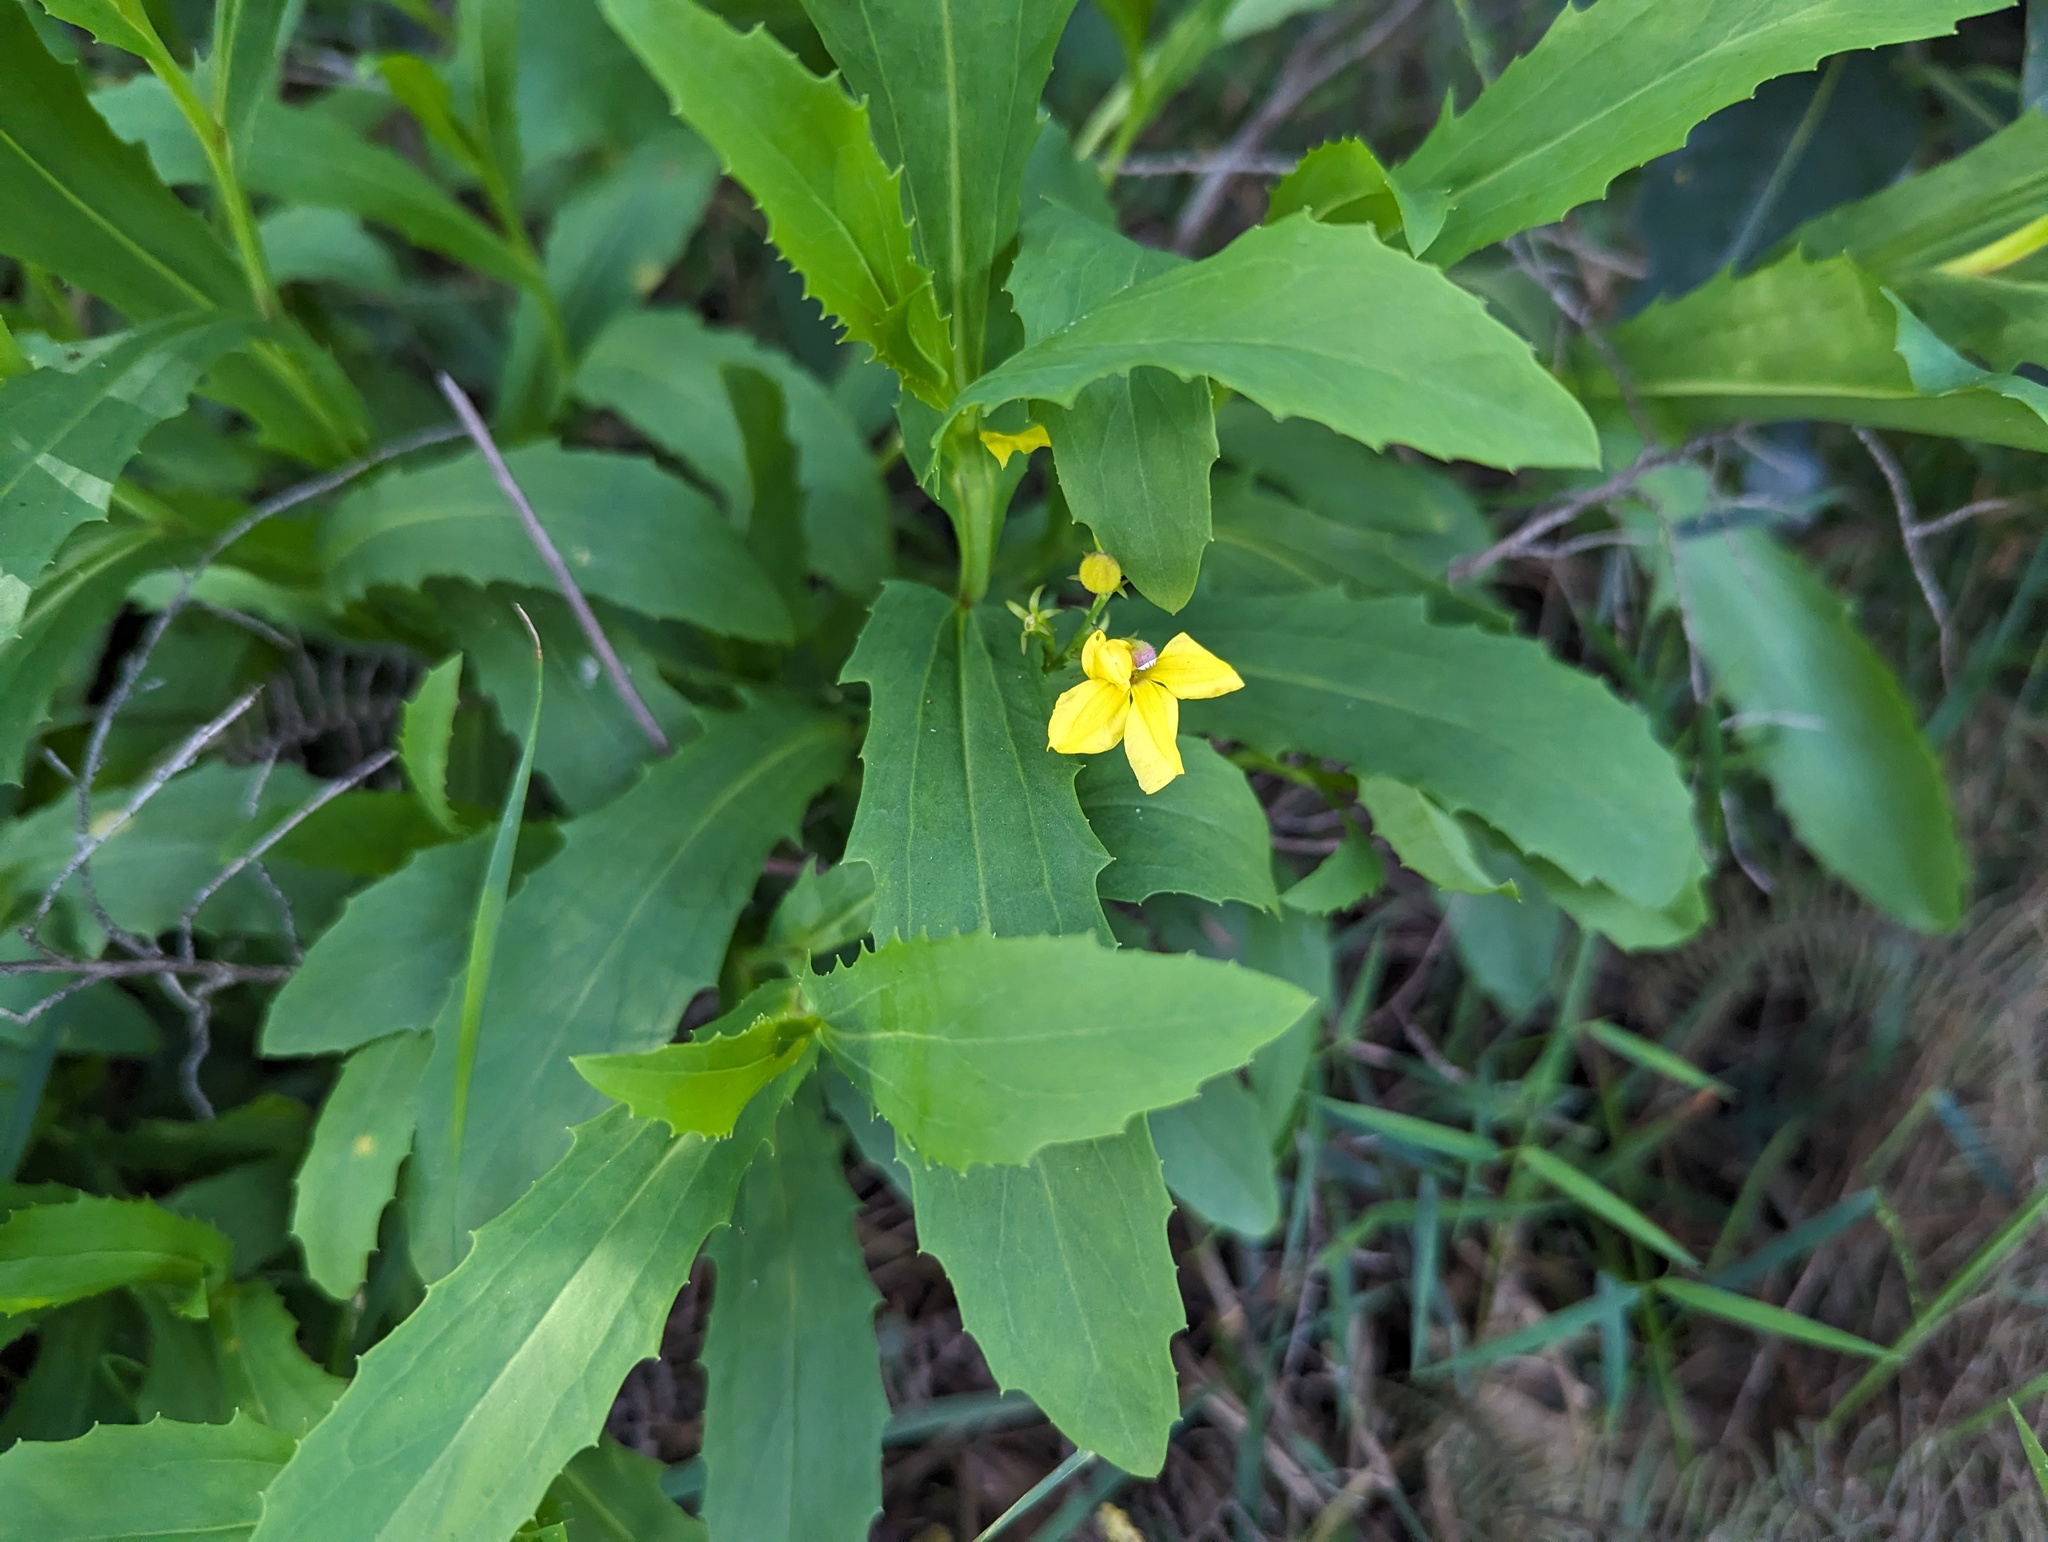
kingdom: Plantae
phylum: Tracheophyta
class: Magnoliopsida
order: Asterales
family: Goodeniaceae
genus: Goodenia
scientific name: Goodenia decurrens
